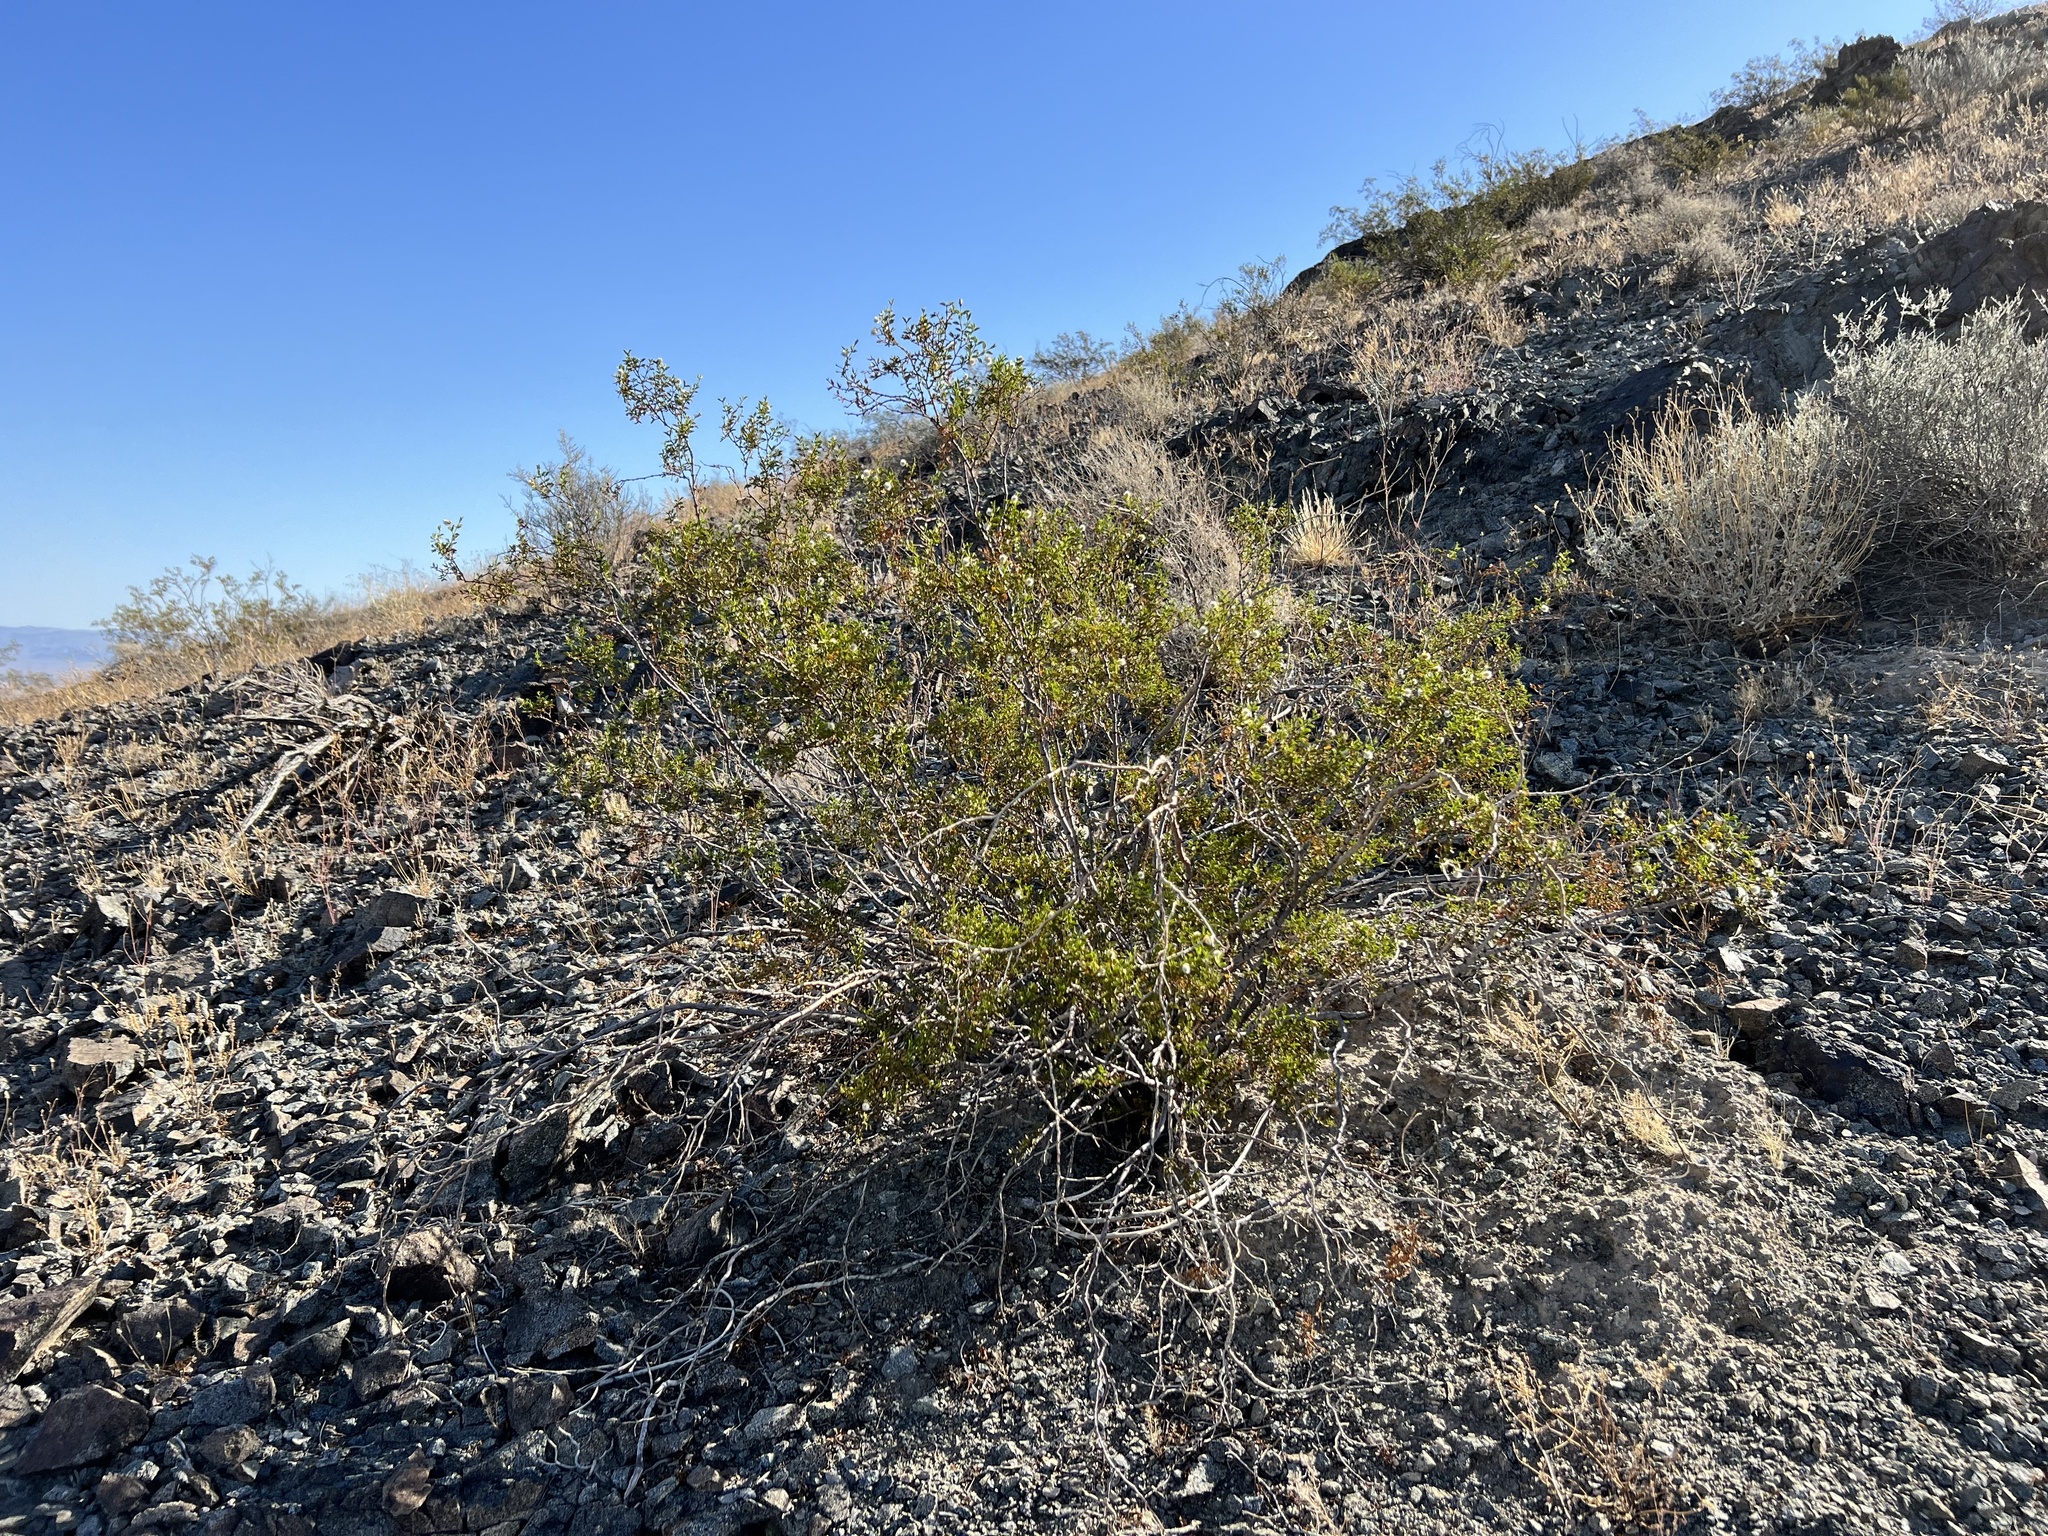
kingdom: Plantae
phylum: Tracheophyta
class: Magnoliopsida
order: Zygophyllales
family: Zygophyllaceae
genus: Larrea
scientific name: Larrea tridentata
